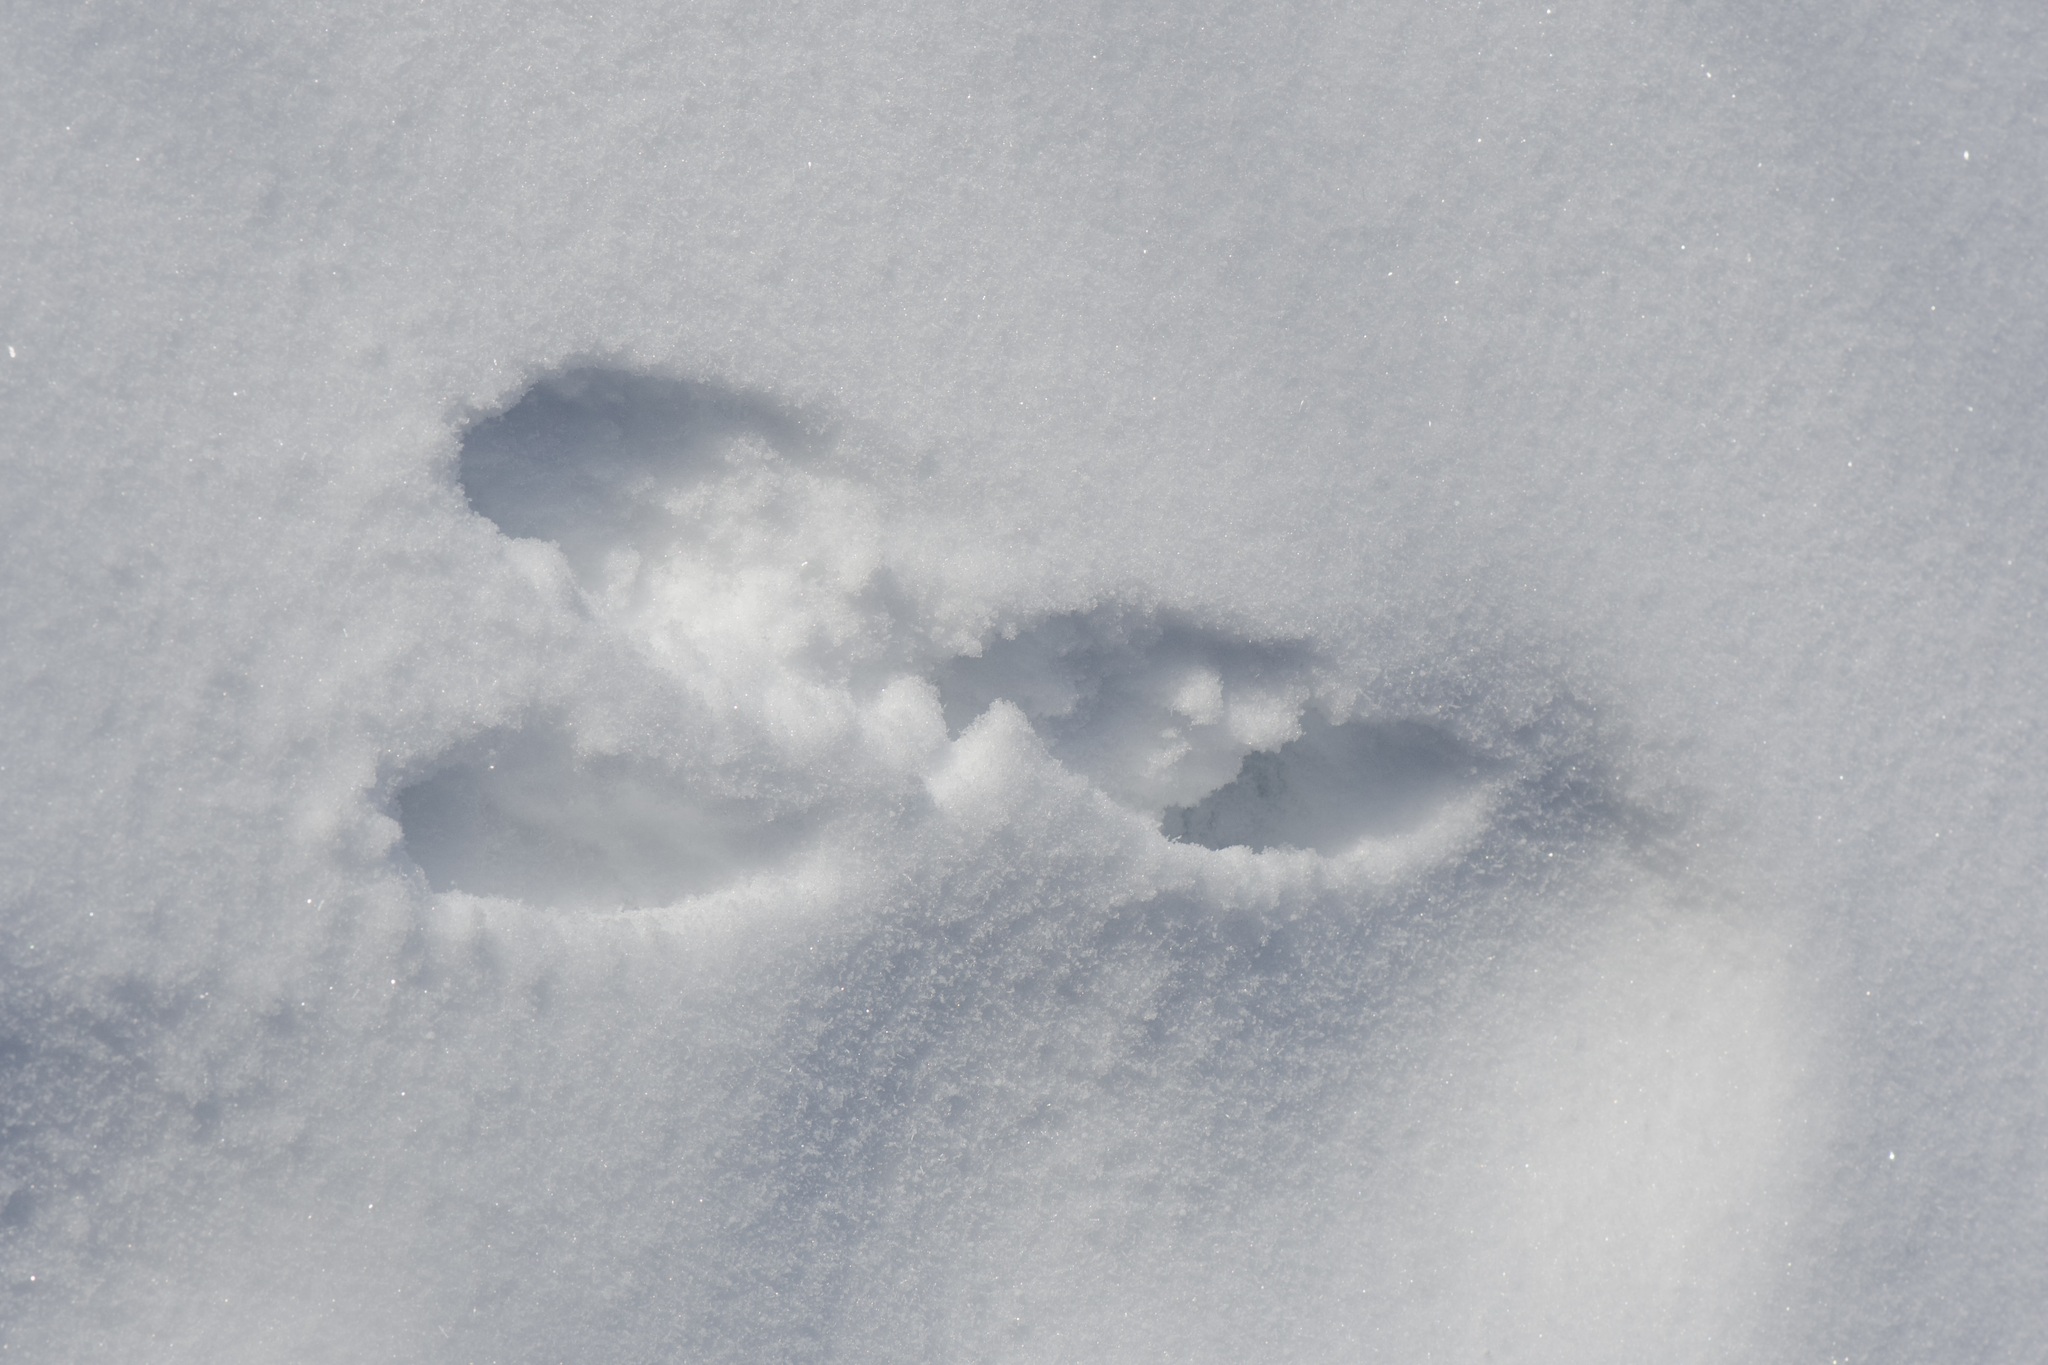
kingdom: Animalia
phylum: Chordata
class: Mammalia
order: Lagomorpha
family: Leporidae
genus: Sylvilagus
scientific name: Sylvilagus floridanus
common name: Eastern cottontail
